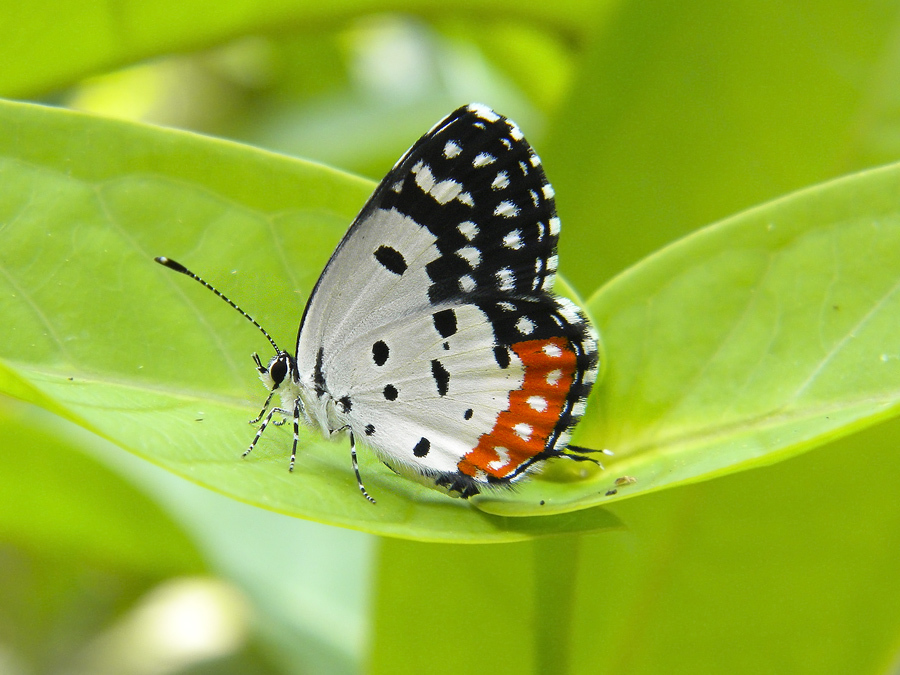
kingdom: Animalia
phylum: Arthropoda
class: Insecta
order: Lepidoptera
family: Lycaenidae
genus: Talicada
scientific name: Talicada nyseus
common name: Red pierrot
